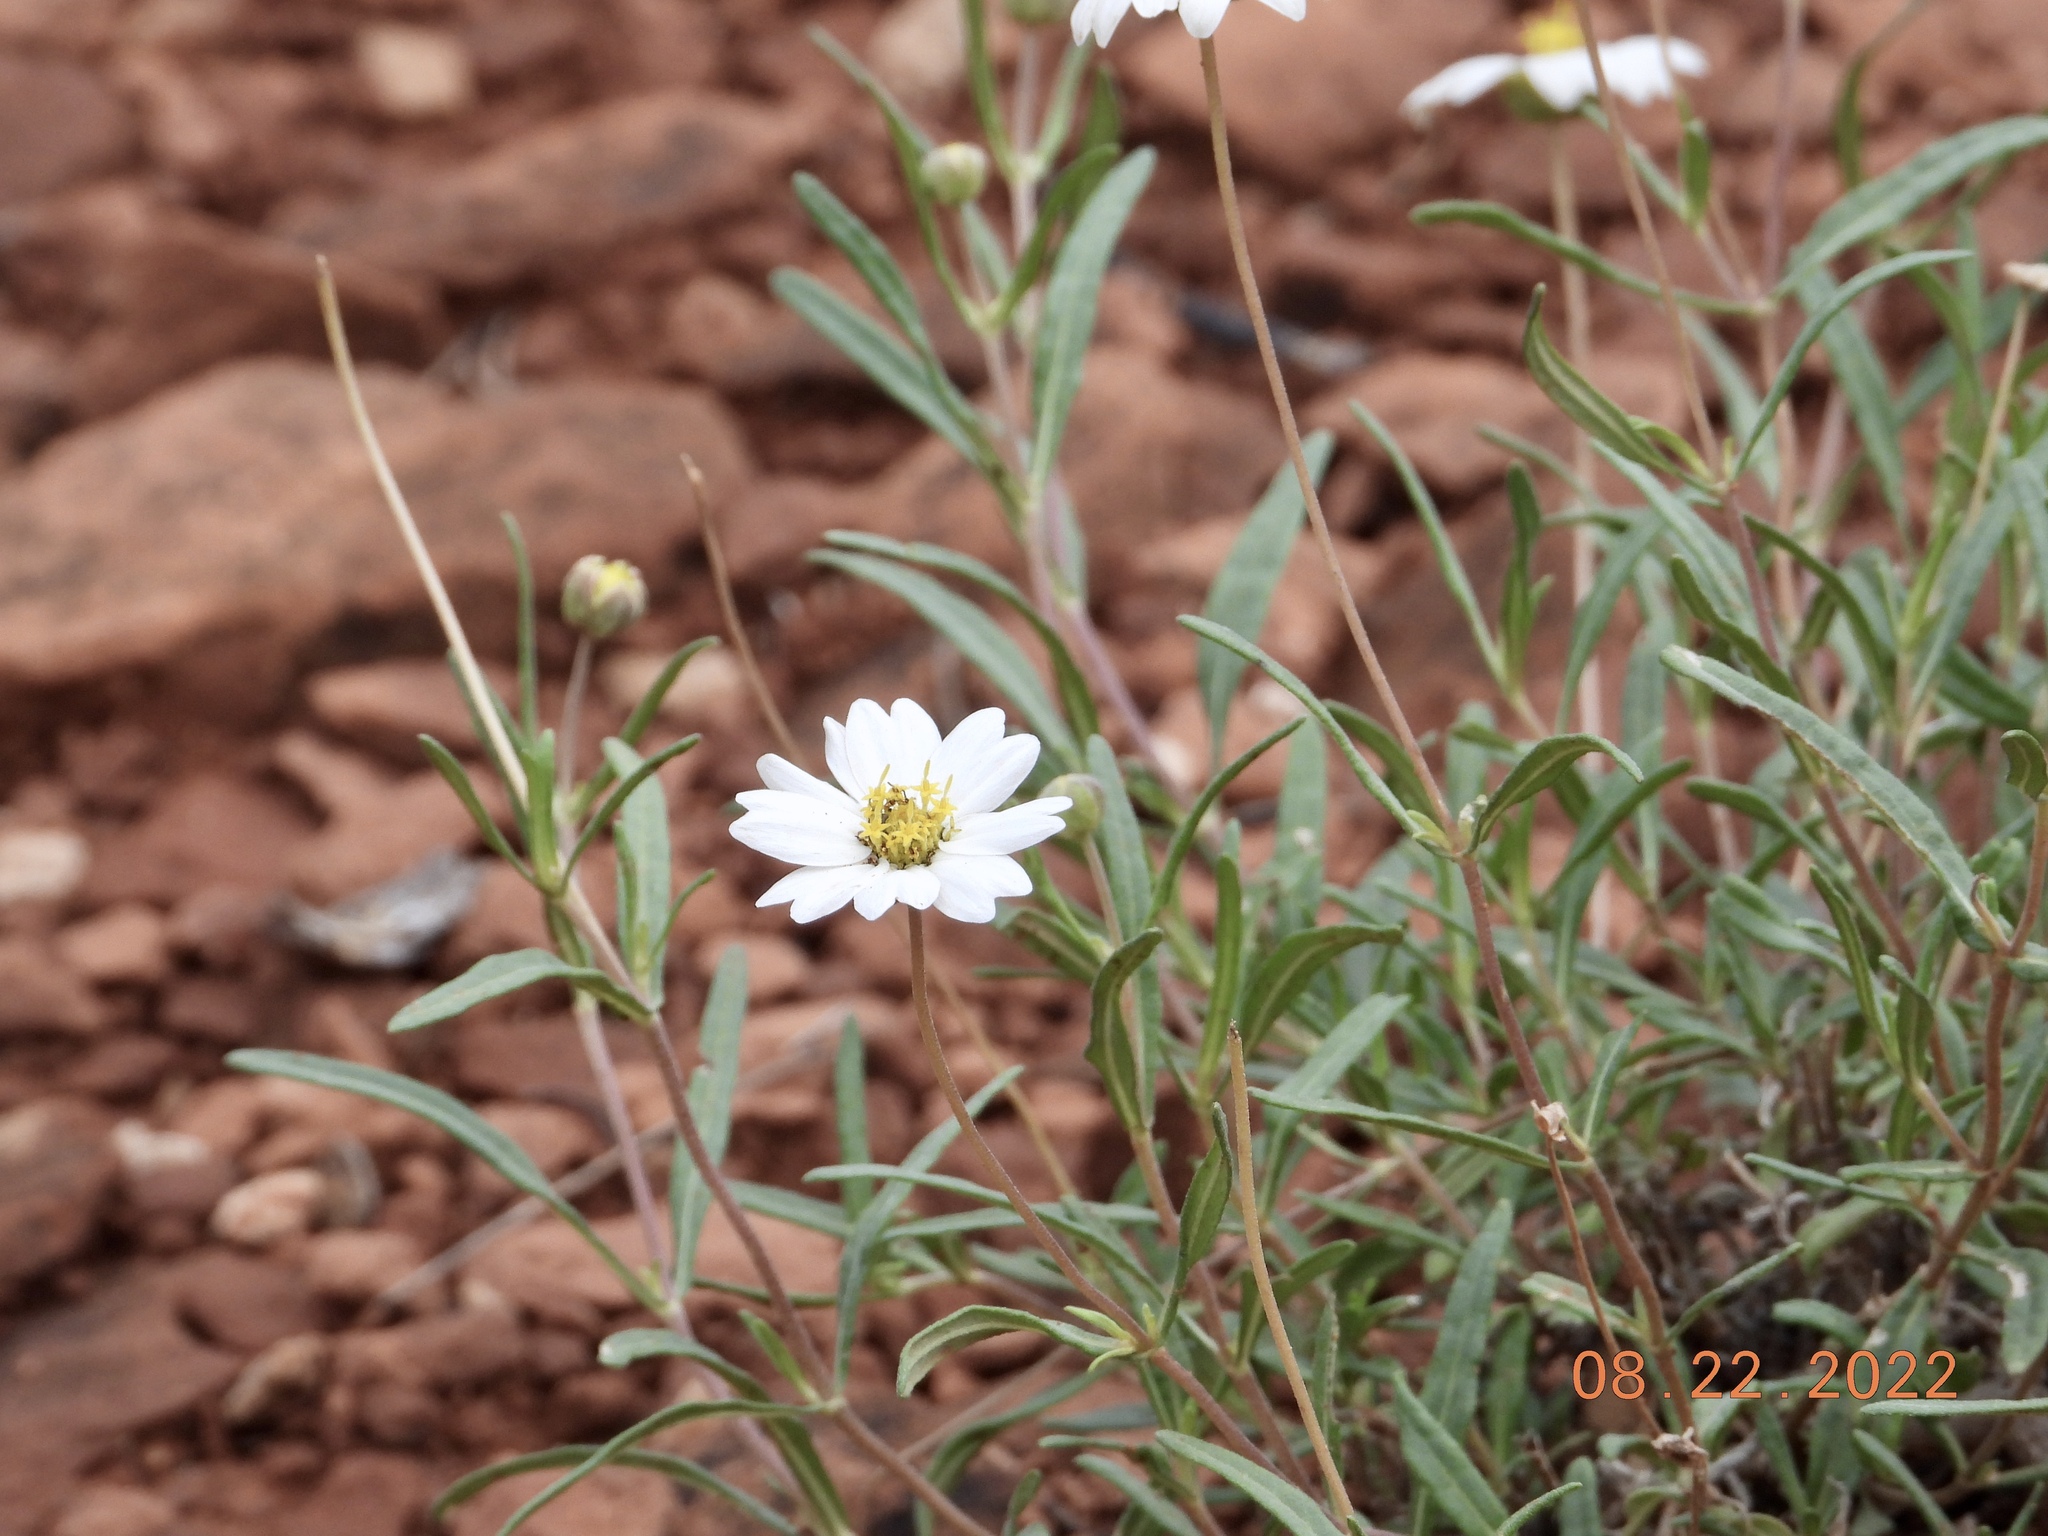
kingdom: Plantae
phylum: Tracheophyta
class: Magnoliopsida
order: Asterales
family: Asteraceae
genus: Melampodium
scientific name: Melampodium leucanthum
